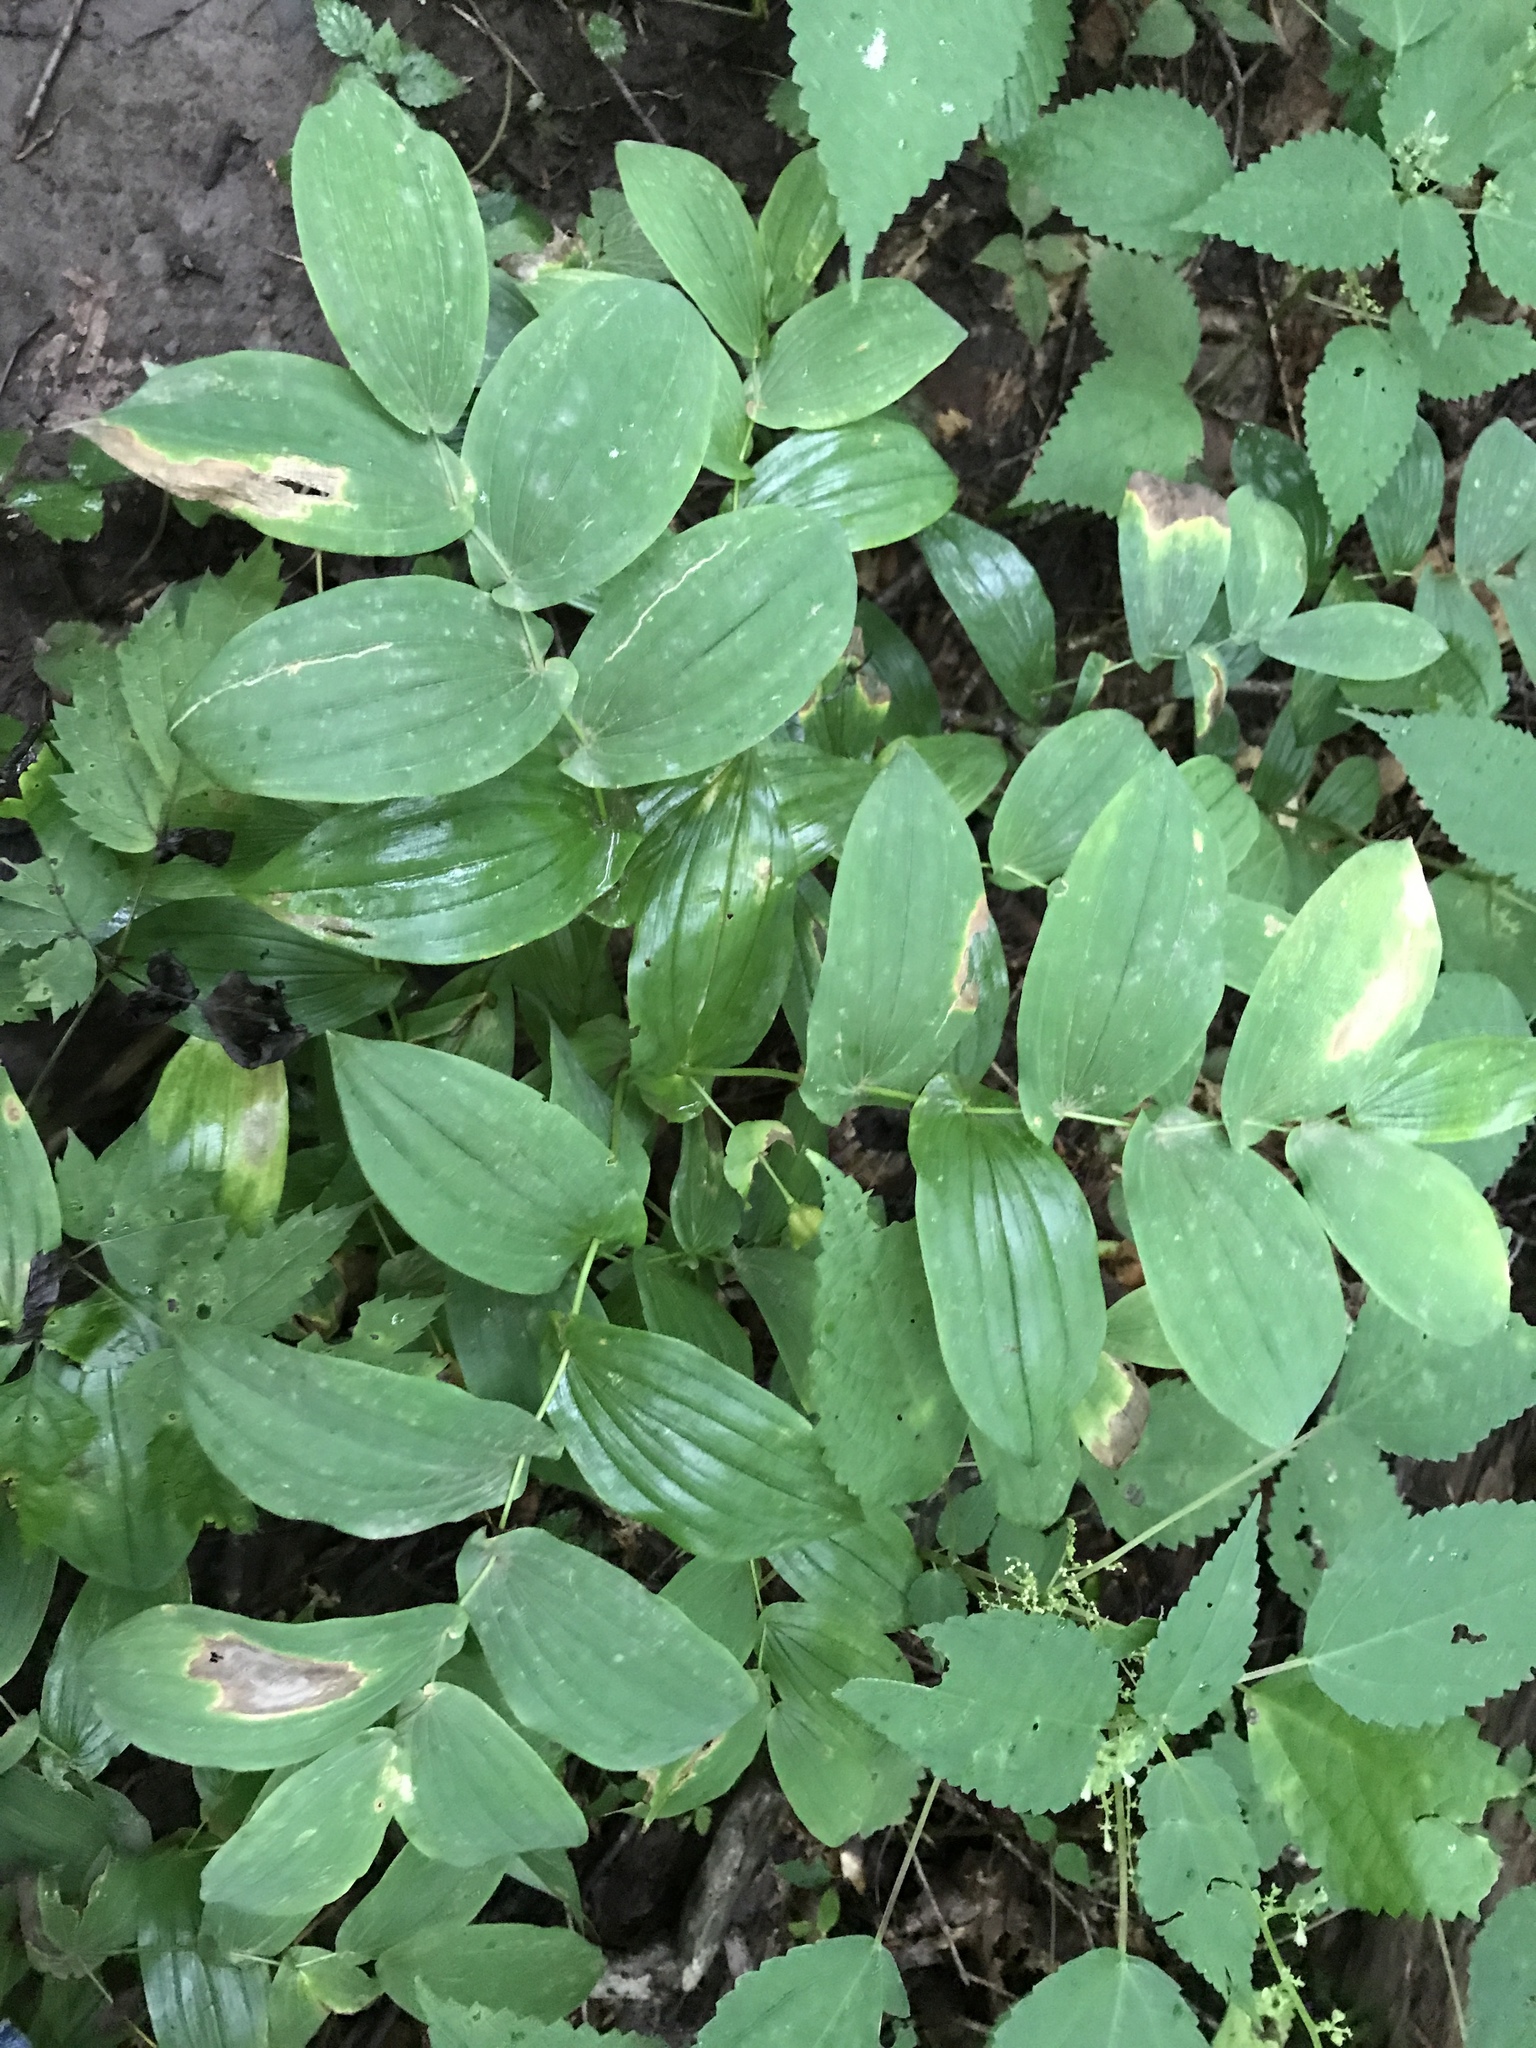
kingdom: Plantae
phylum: Tracheophyta
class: Liliopsida
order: Liliales
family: Colchicaceae
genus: Uvularia
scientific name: Uvularia grandiflora
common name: Bellwort
